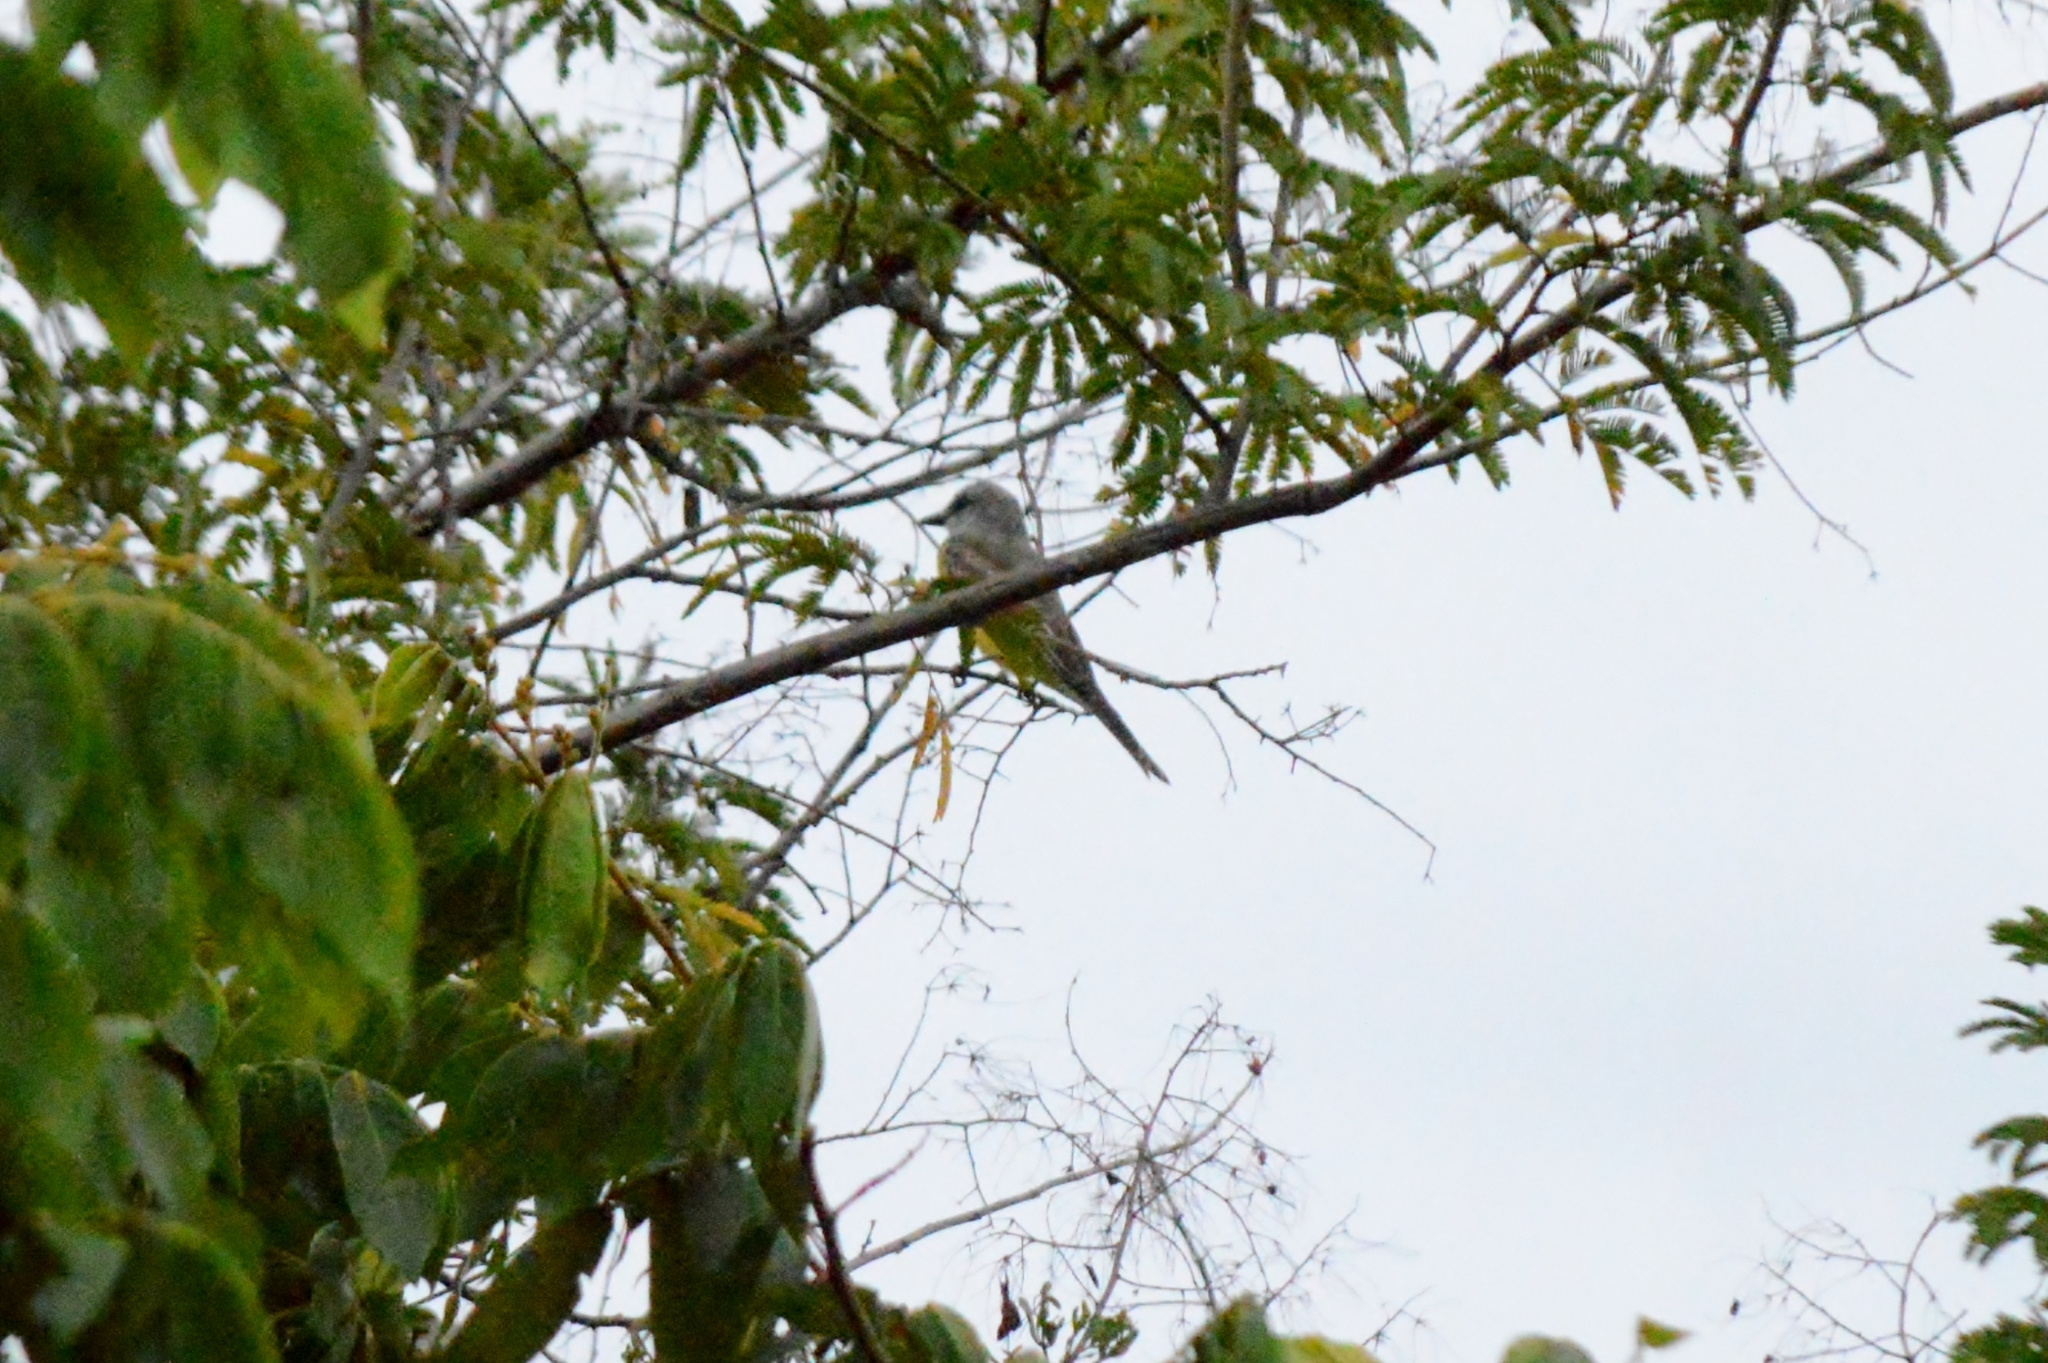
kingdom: Animalia
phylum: Chordata
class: Aves
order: Passeriformes
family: Tyrannidae
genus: Tyrannus
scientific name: Tyrannus melancholicus
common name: Tropical kingbird
